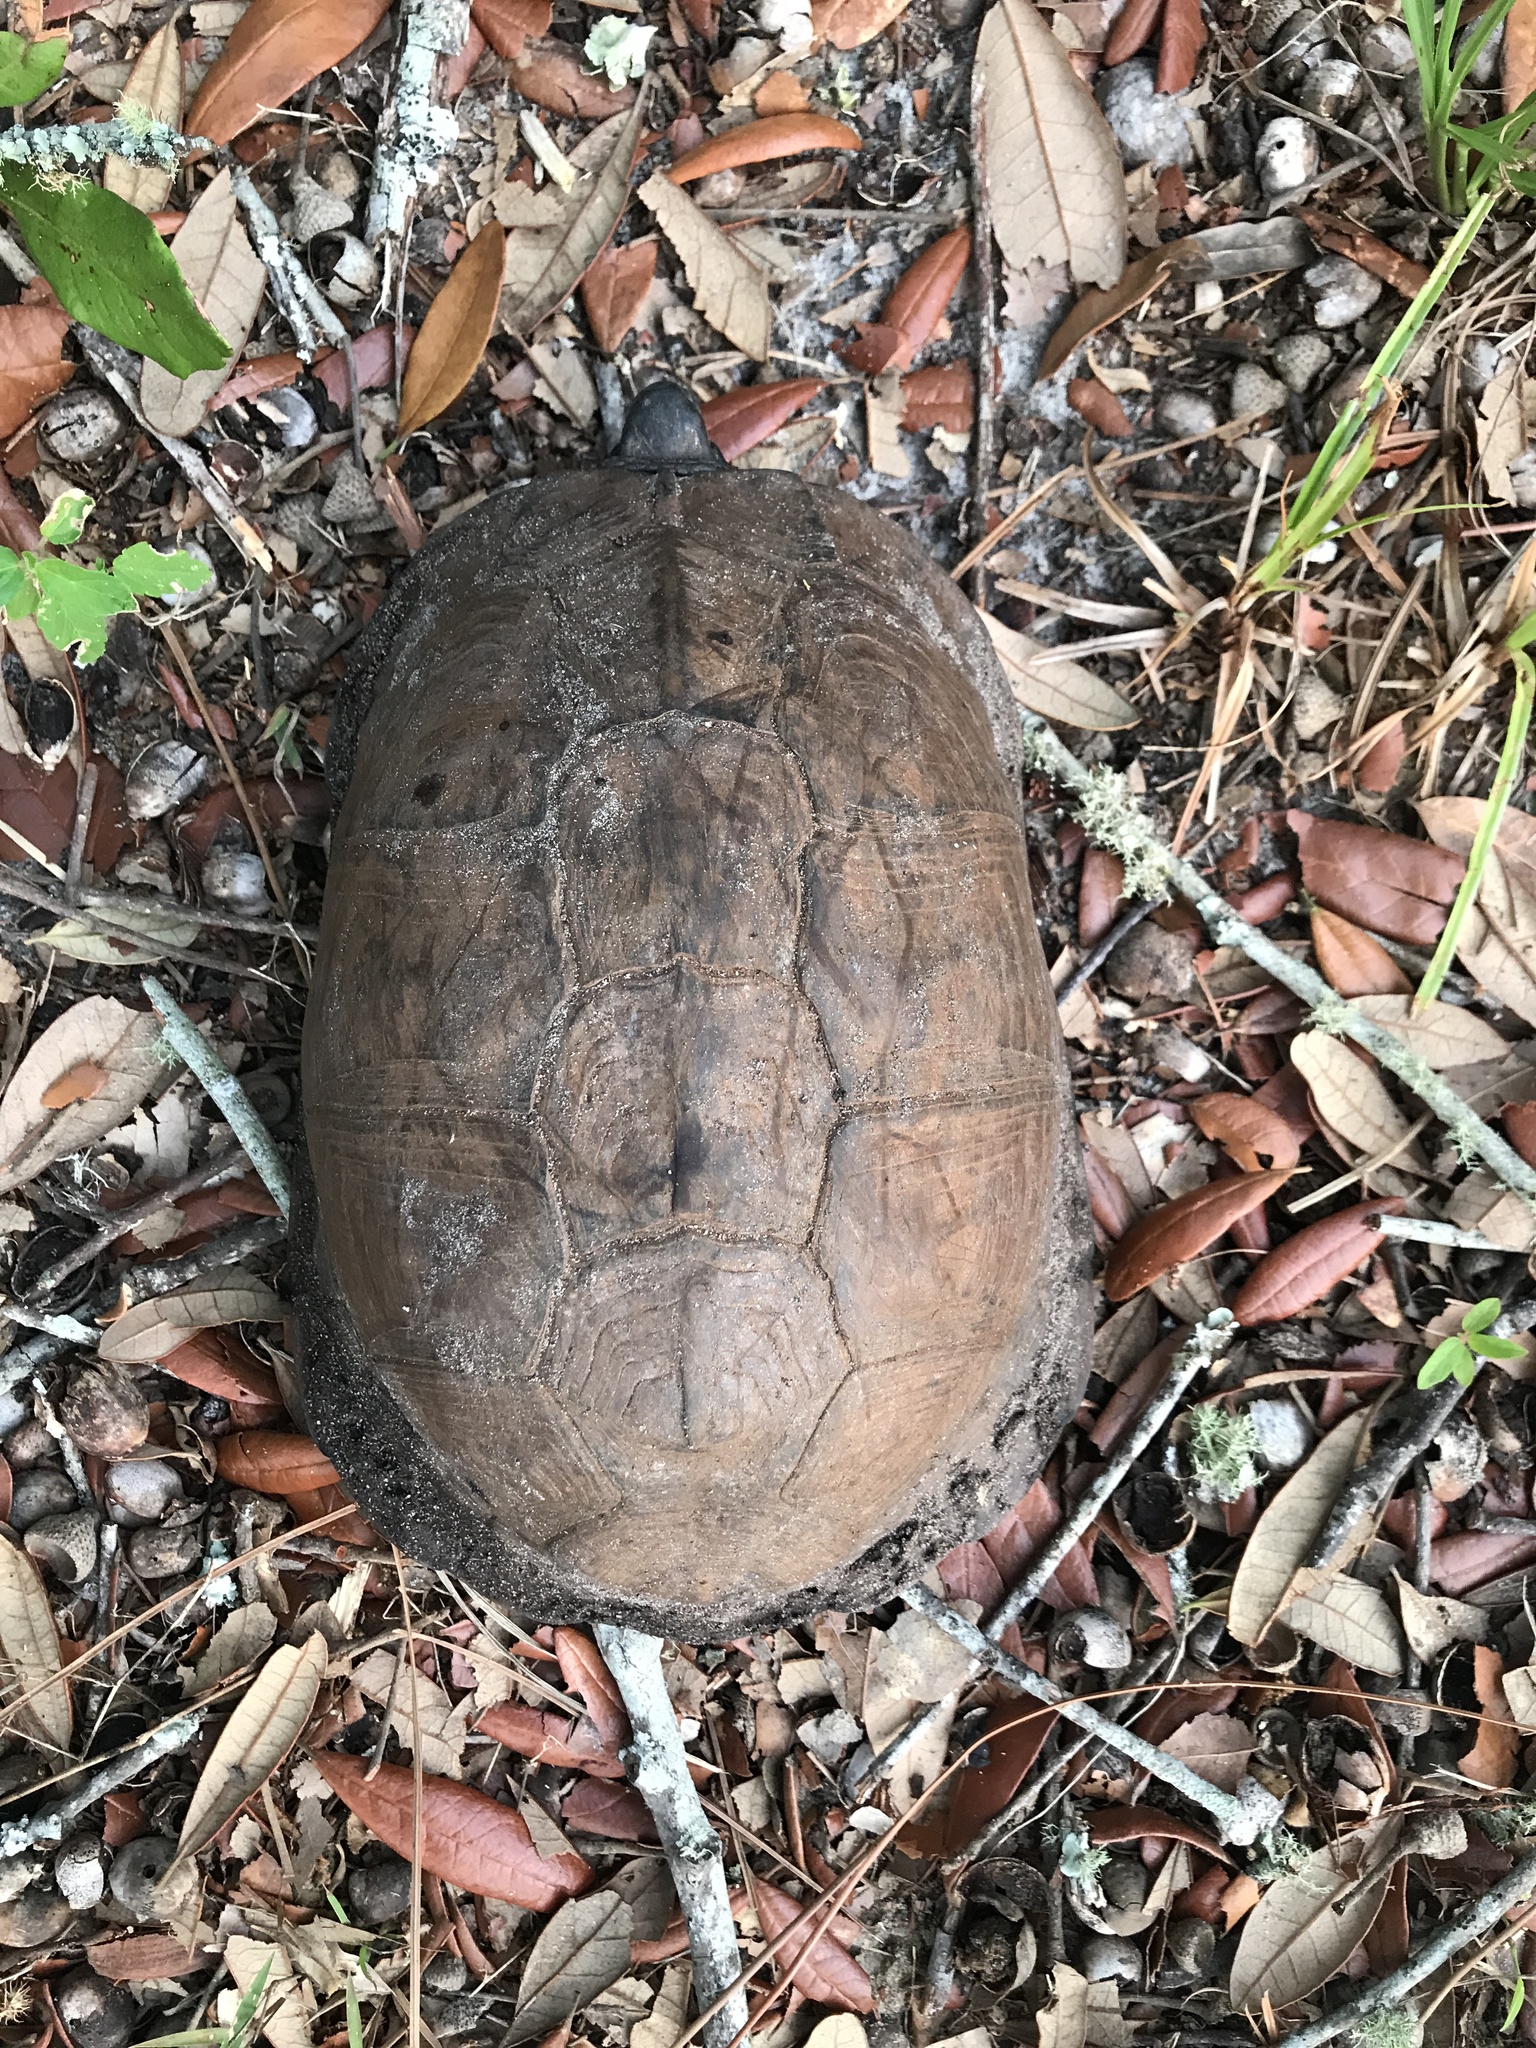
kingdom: Animalia
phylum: Chordata
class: Testudines
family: Emydidae
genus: Terrapene
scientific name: Terrapene carolina
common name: Common box turtle
